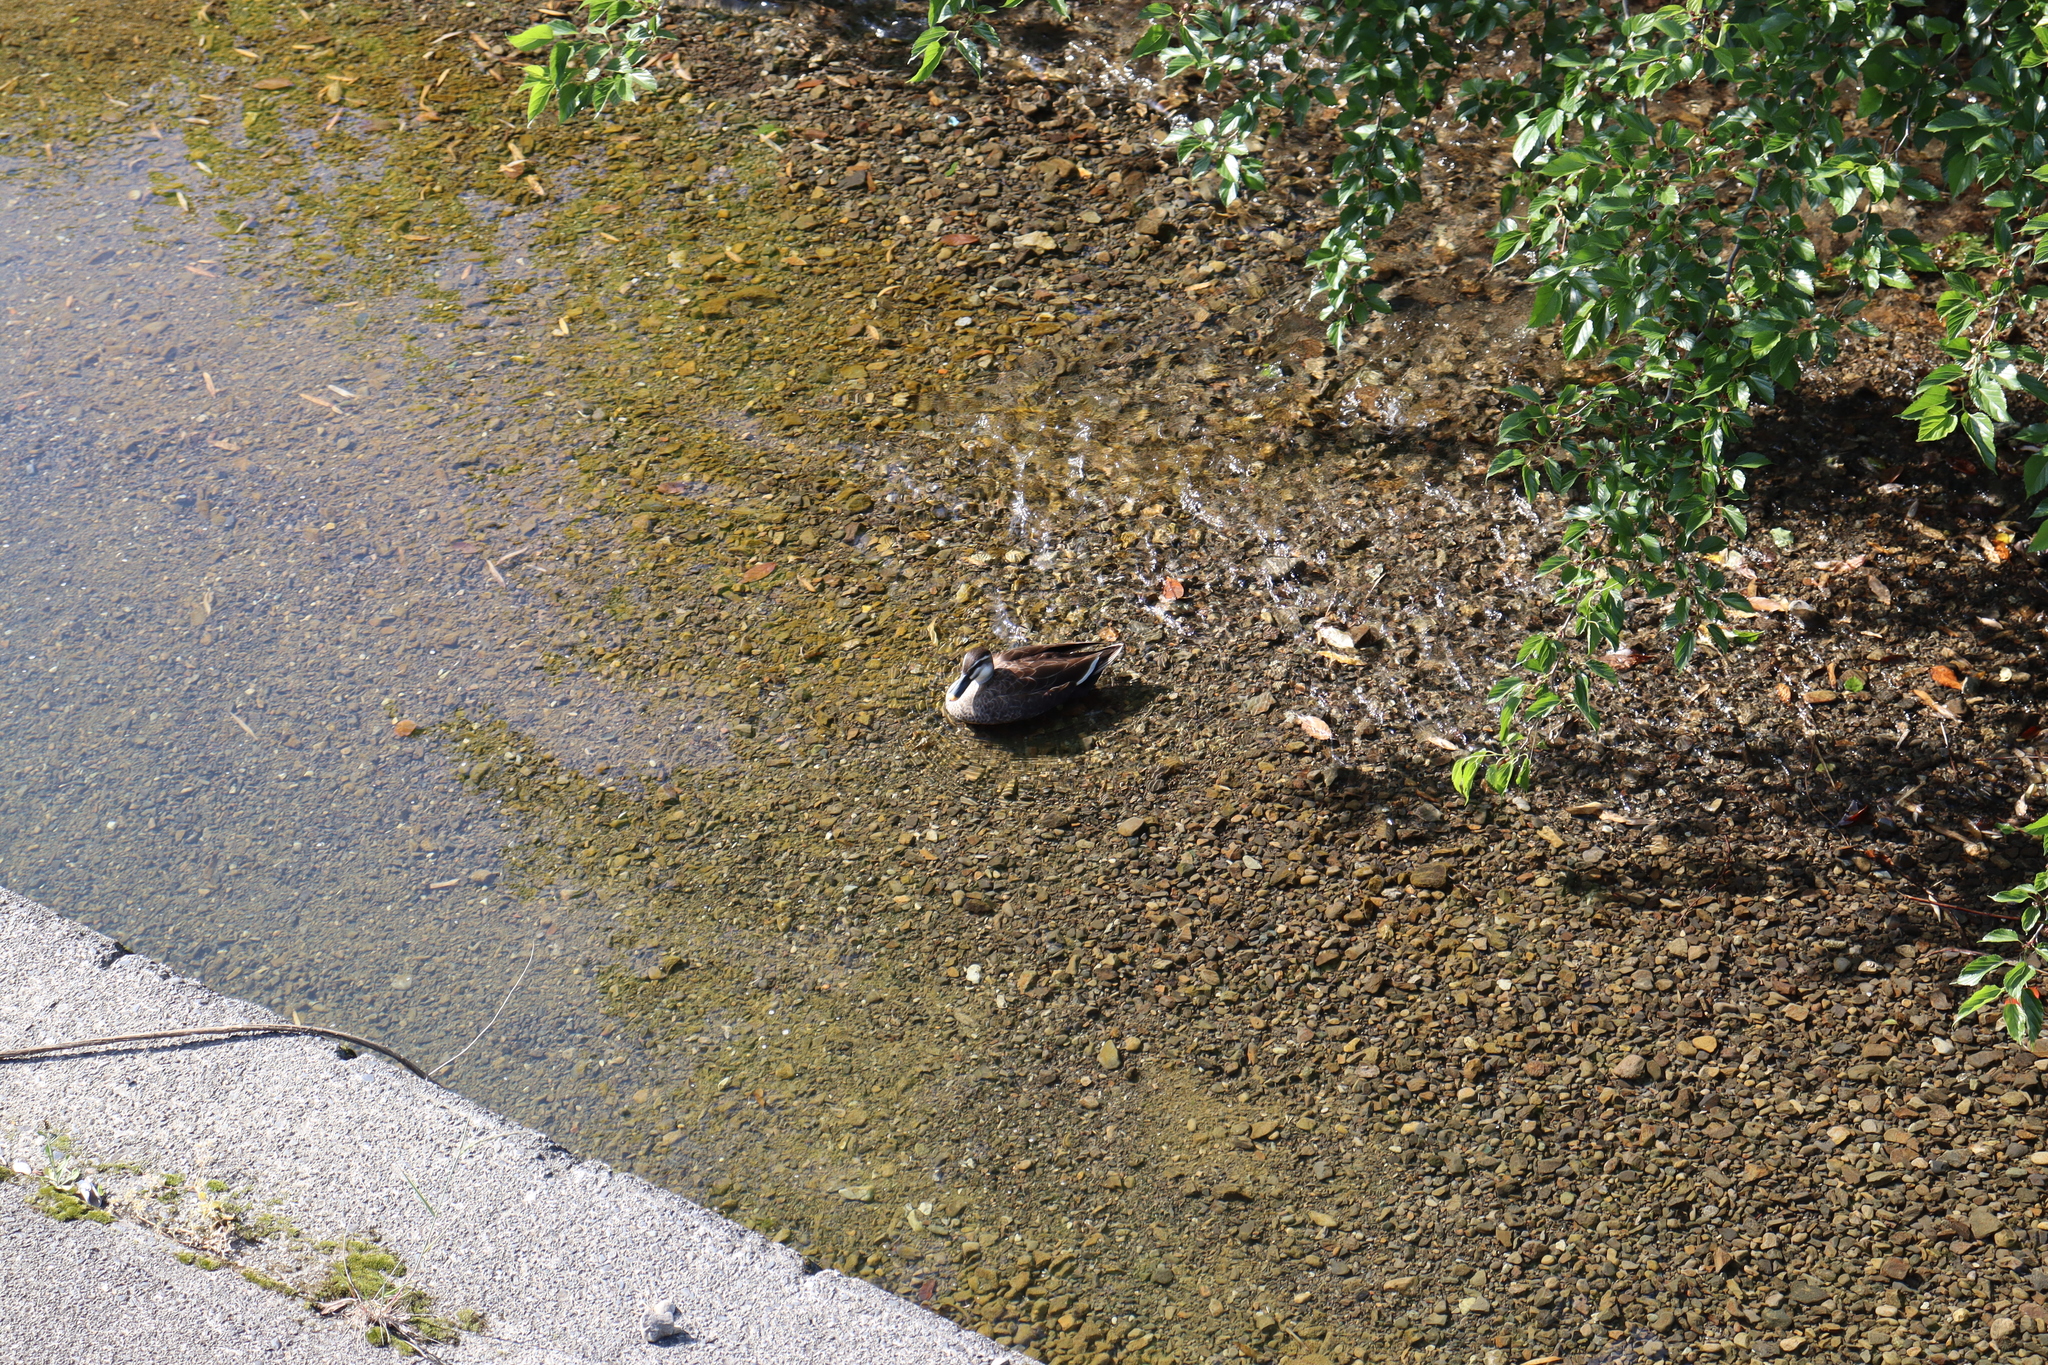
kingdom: Animalia
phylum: Chordata
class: Aves
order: Anseriformes
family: Anatidae
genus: Anas
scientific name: Anas zonorhyncha
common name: Eastern spot-billed duck
